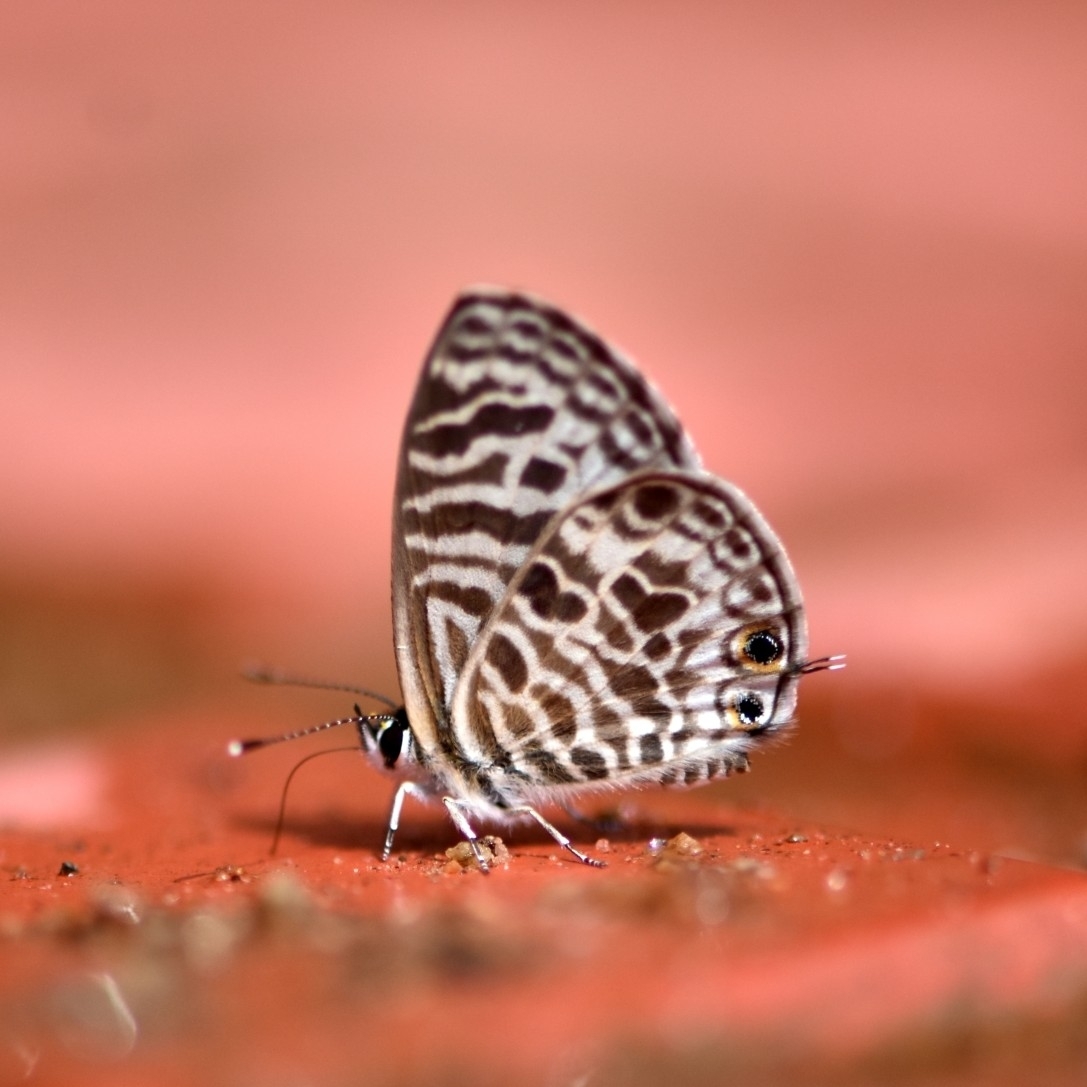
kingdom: Animalia
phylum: Arthropoda
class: Insecta
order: Lepidoptera
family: Lycaenidae
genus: Leptotes
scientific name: Leptotes plinius
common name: Zebra blue
